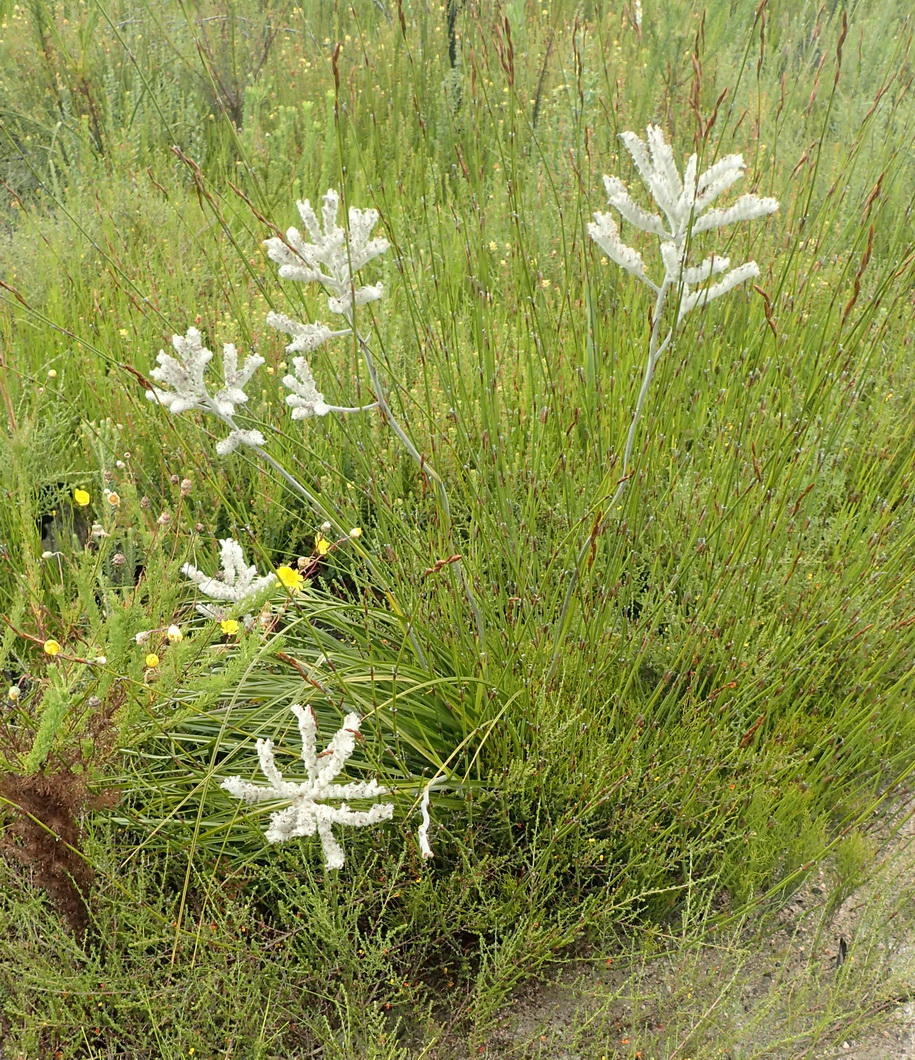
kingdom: Plantae
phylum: Tracheophyta
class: Liliopsida
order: Asparagales
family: Lanariaceae
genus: Lanaria
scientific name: Lanaria lanata
